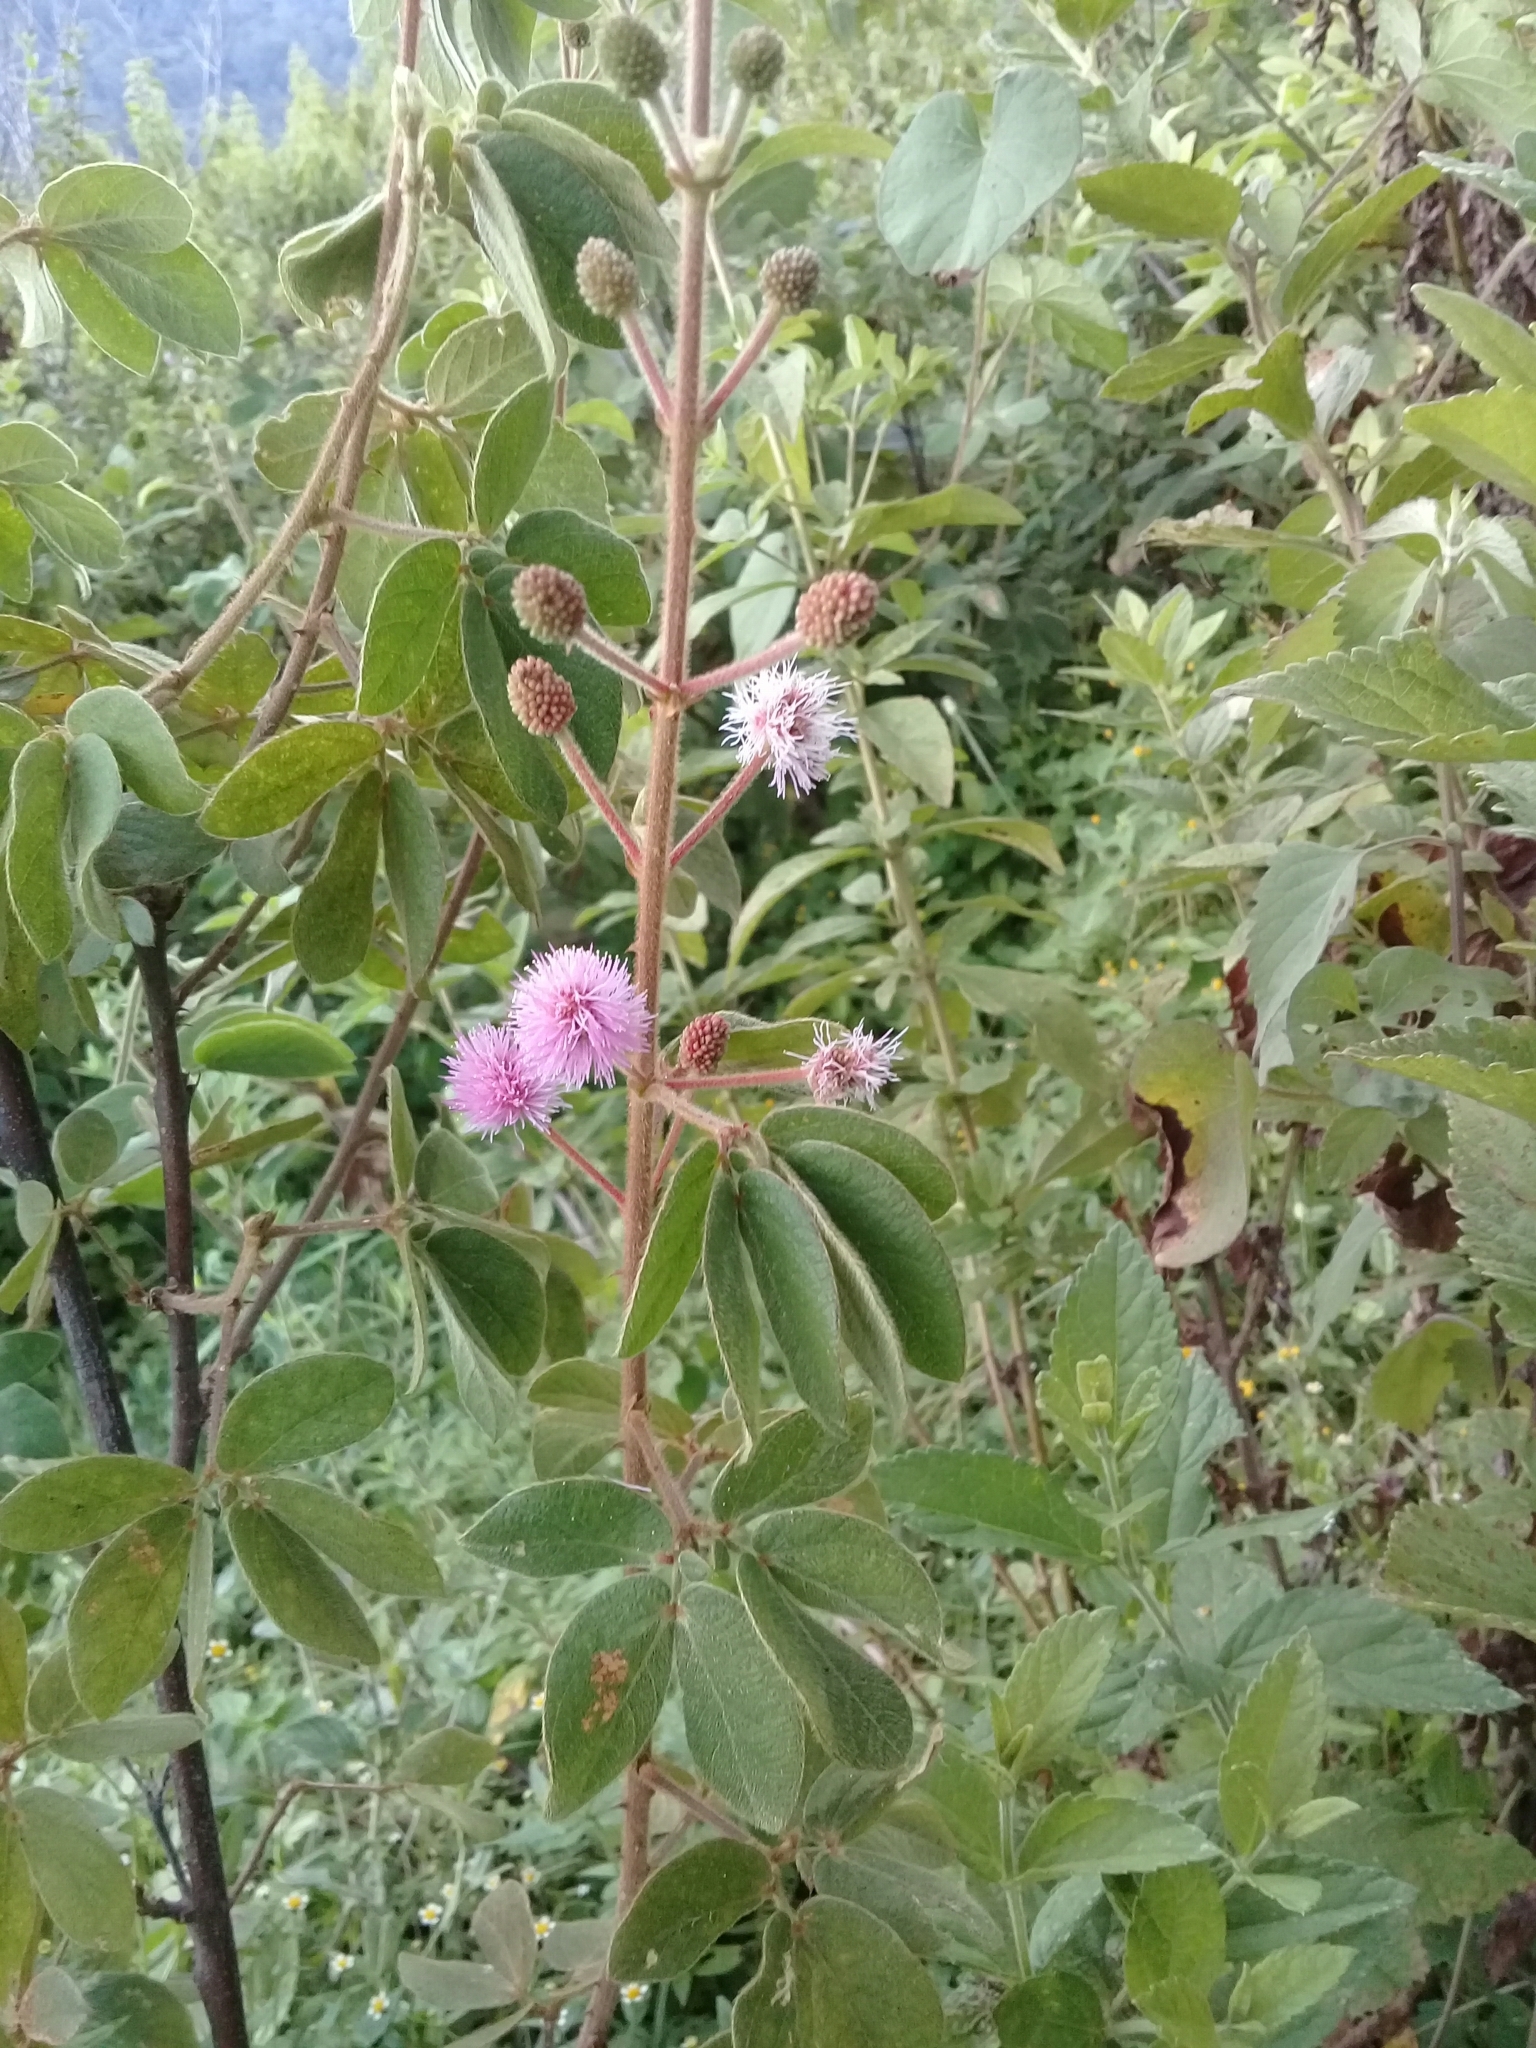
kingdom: Plantae
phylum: Tracheophyta
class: Magnoliopsida
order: Fabales
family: Fabaceae
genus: Mimosa
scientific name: Mimosa albida
